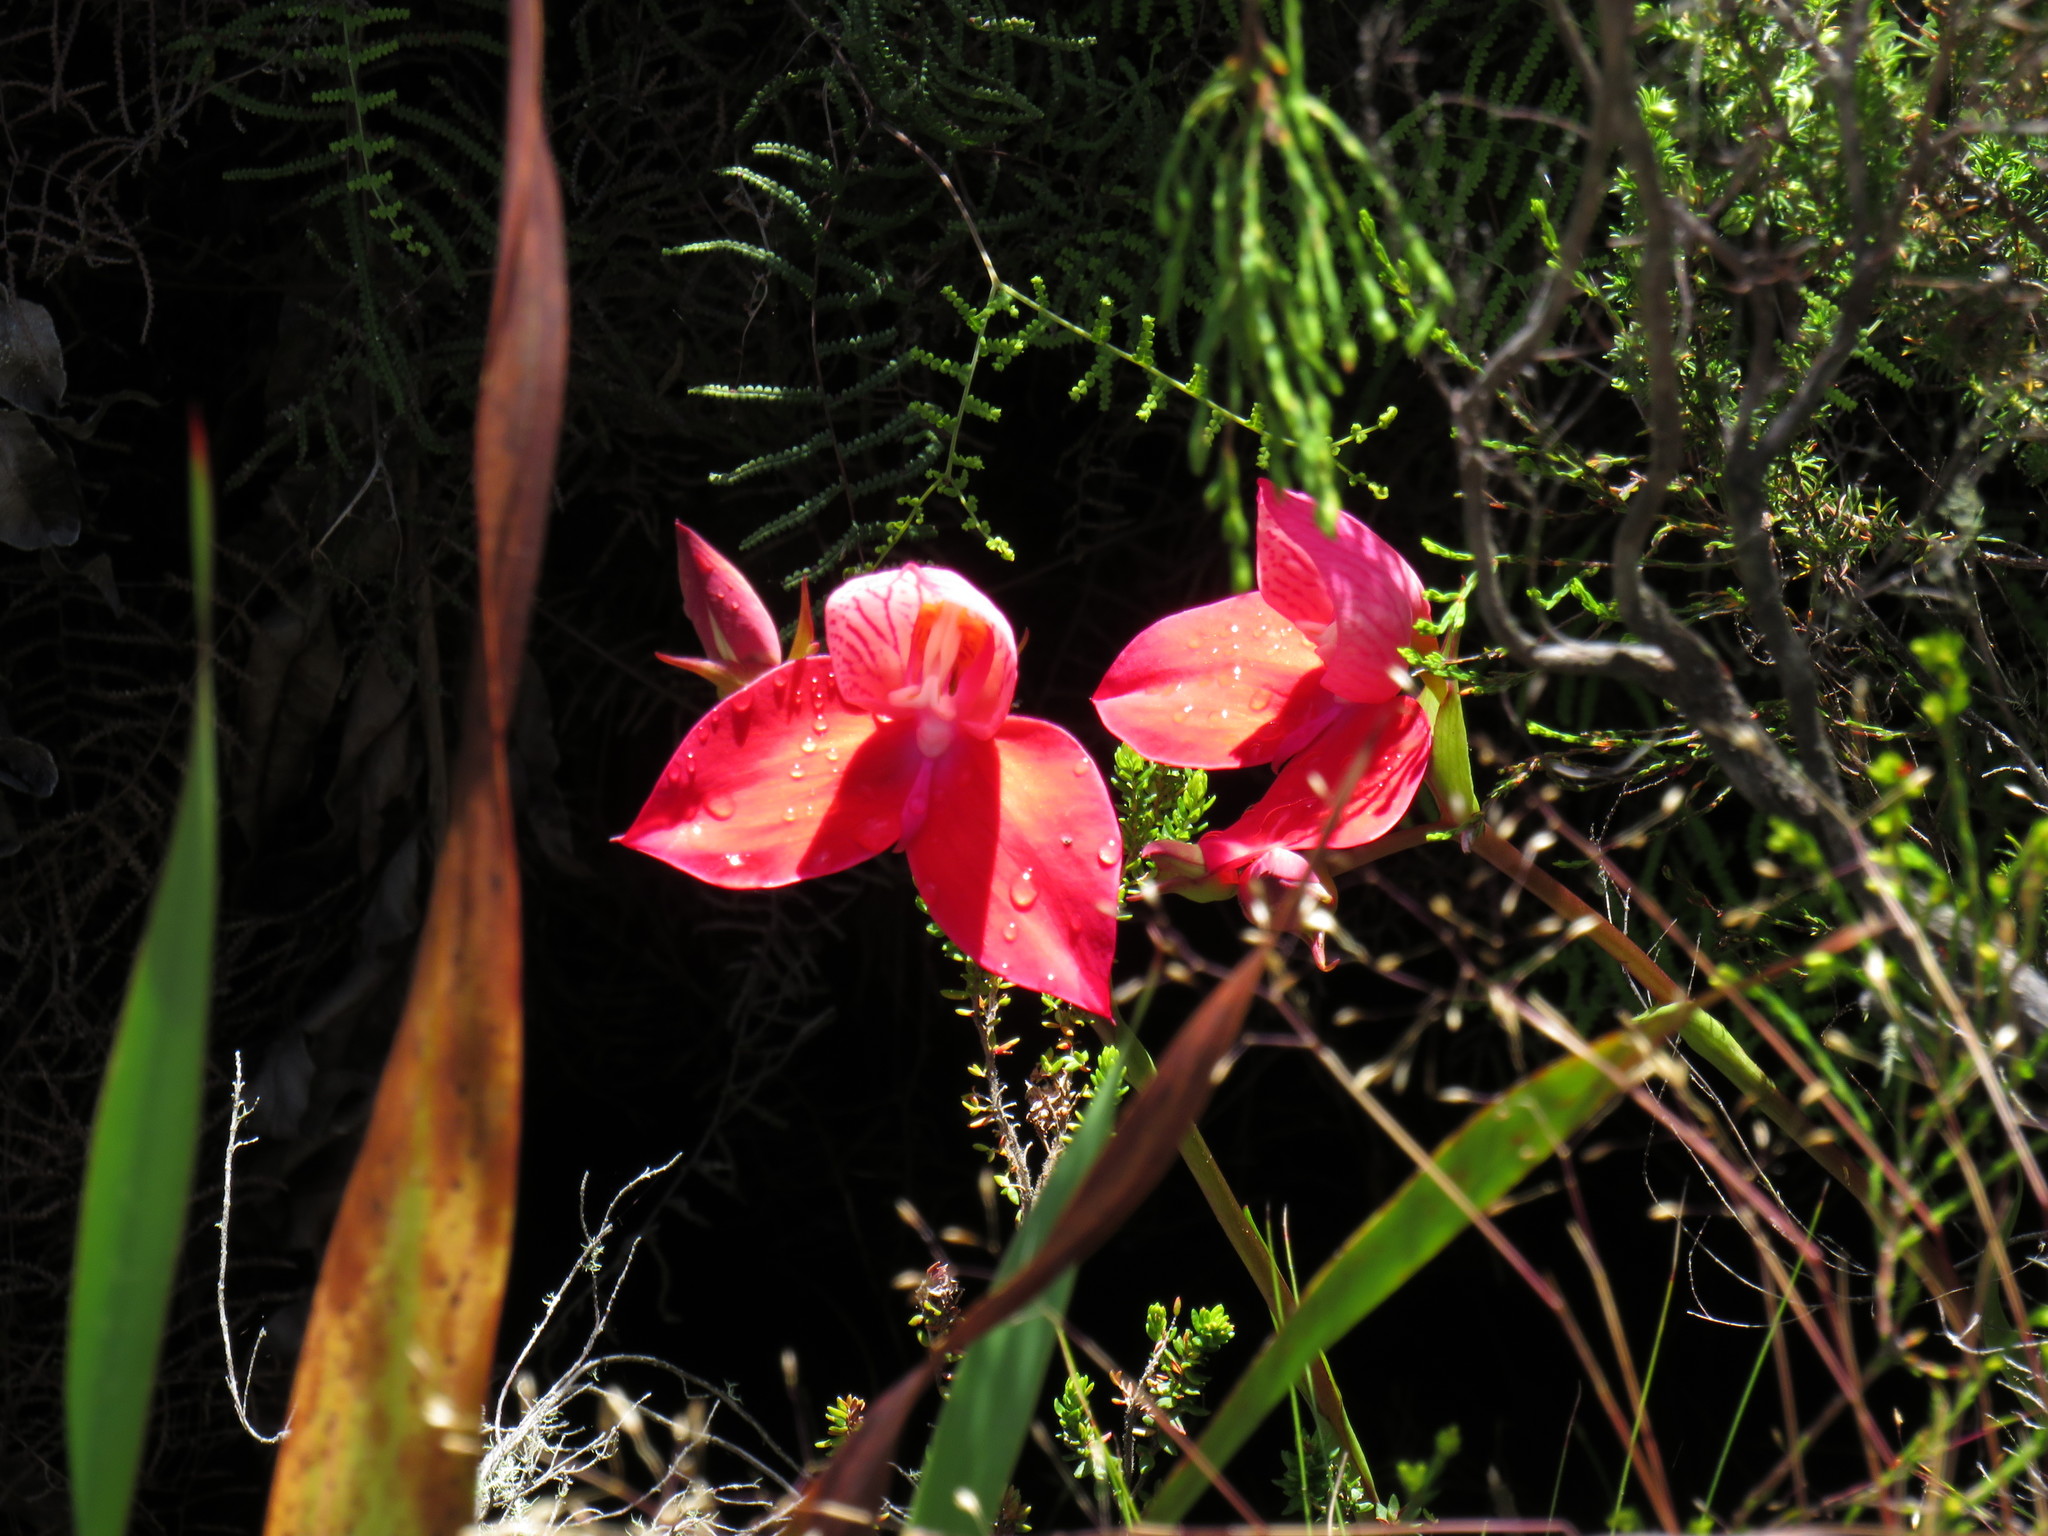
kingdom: Plantae
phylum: Tracheophyta
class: Liliopsida
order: Asparagales
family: Orchidaceae
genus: Disa
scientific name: Disa uniflora
